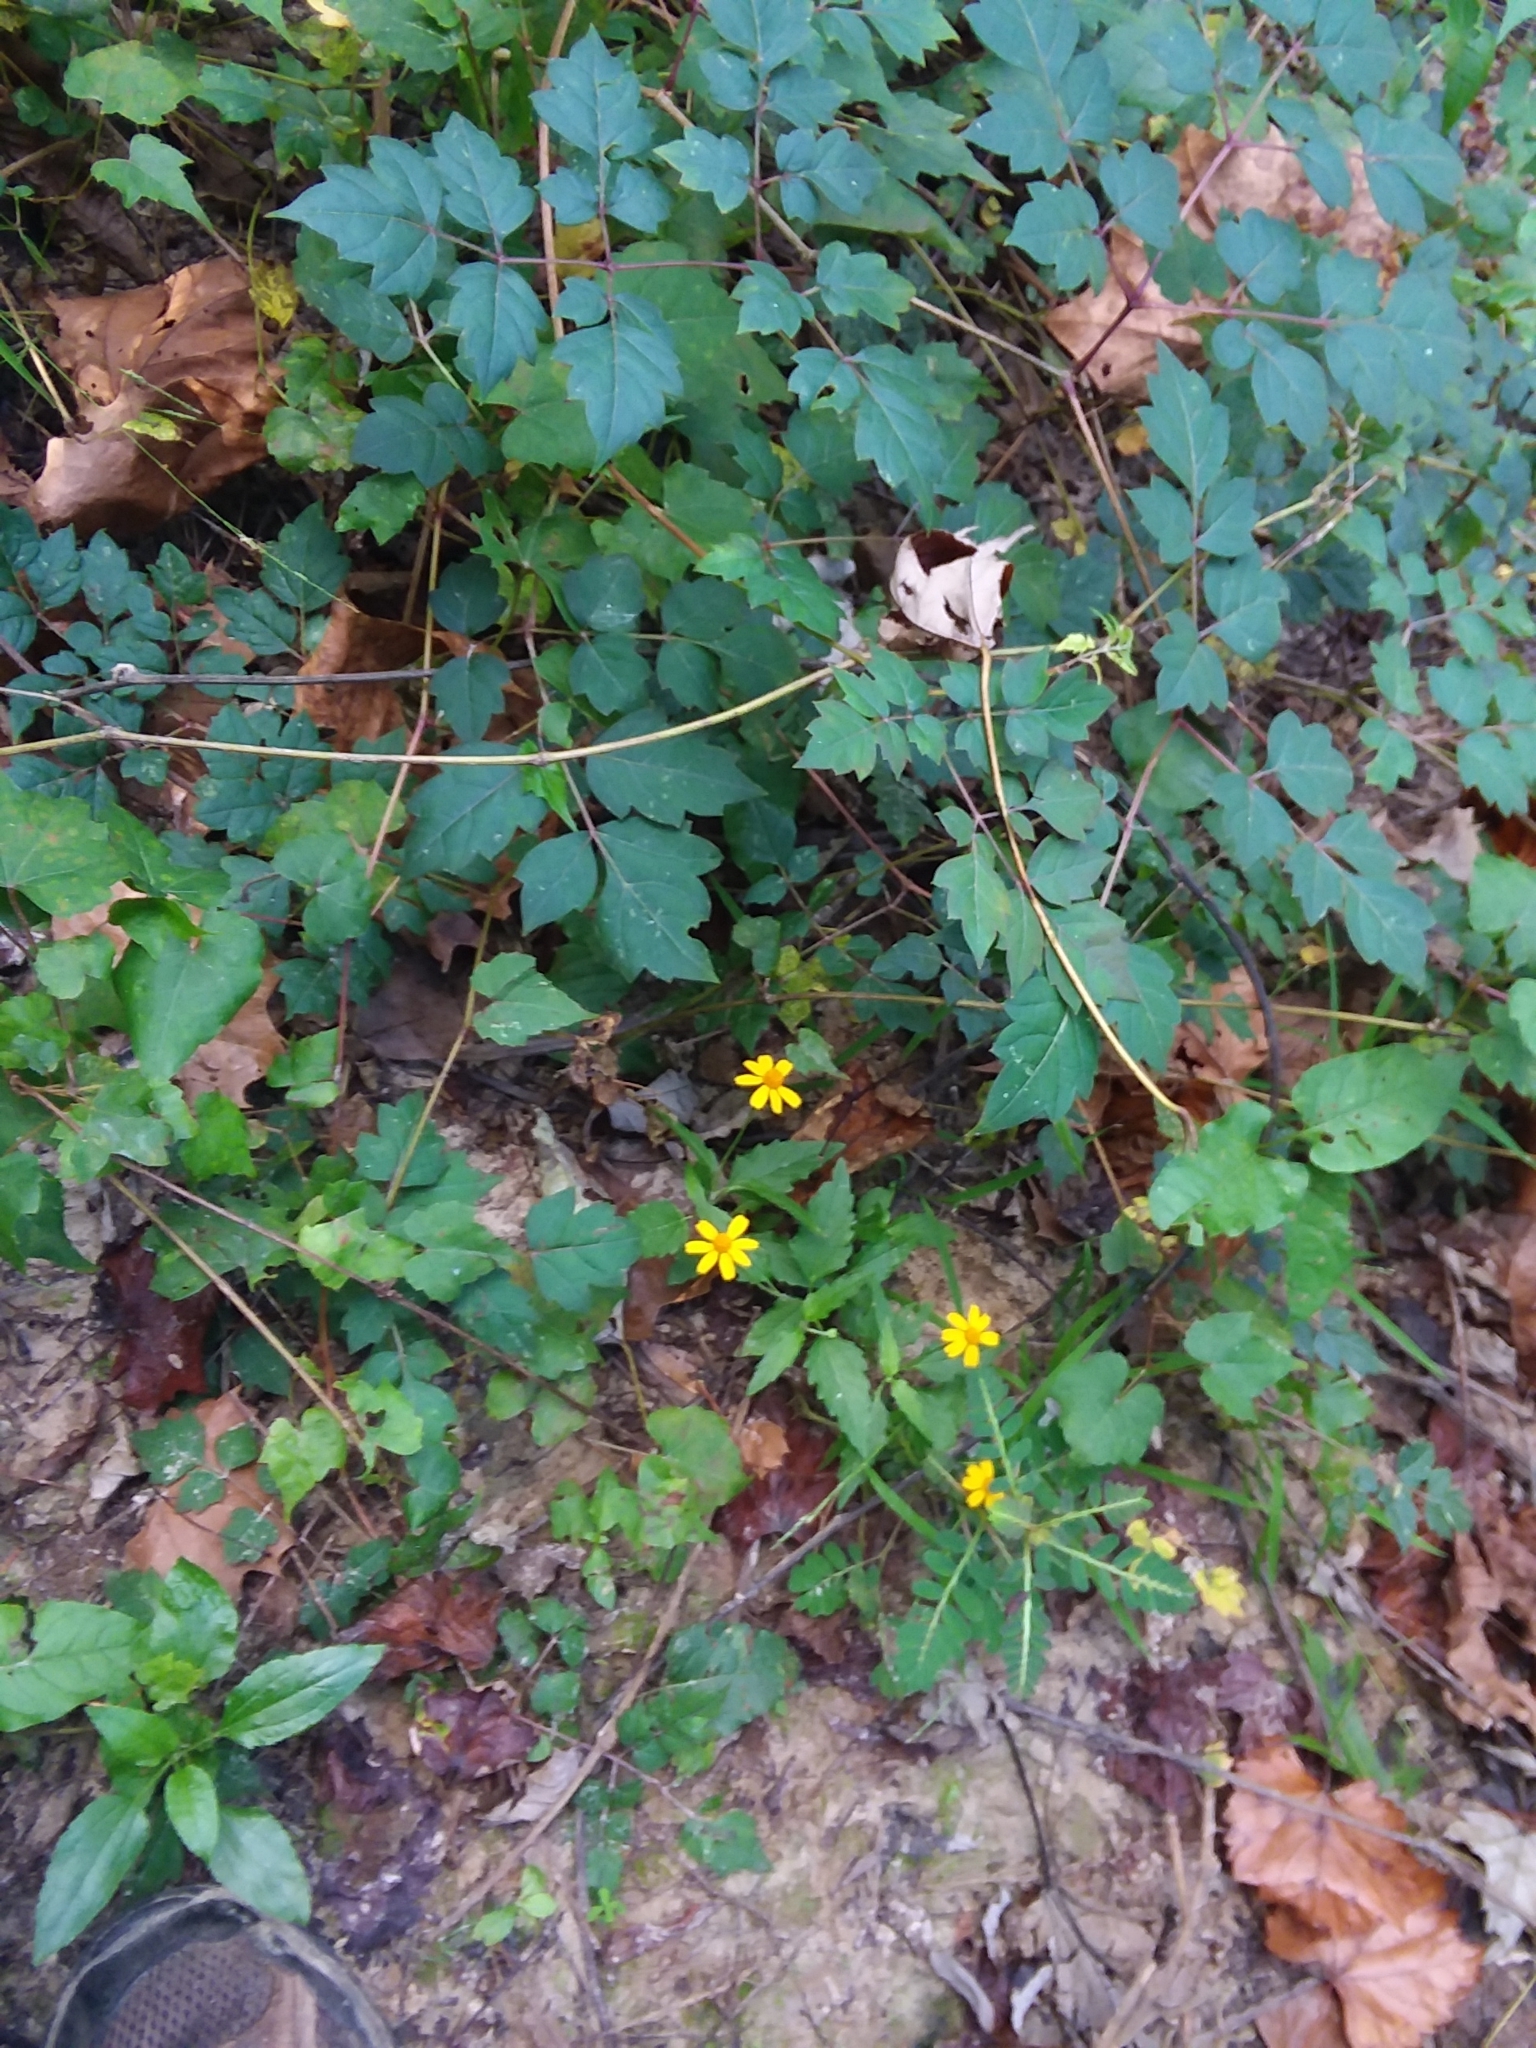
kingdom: Plantae
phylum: Tracheophyta
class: Magnoliopsida
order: Asterales
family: Asteraceae
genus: Acmella
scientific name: Acmella repens
